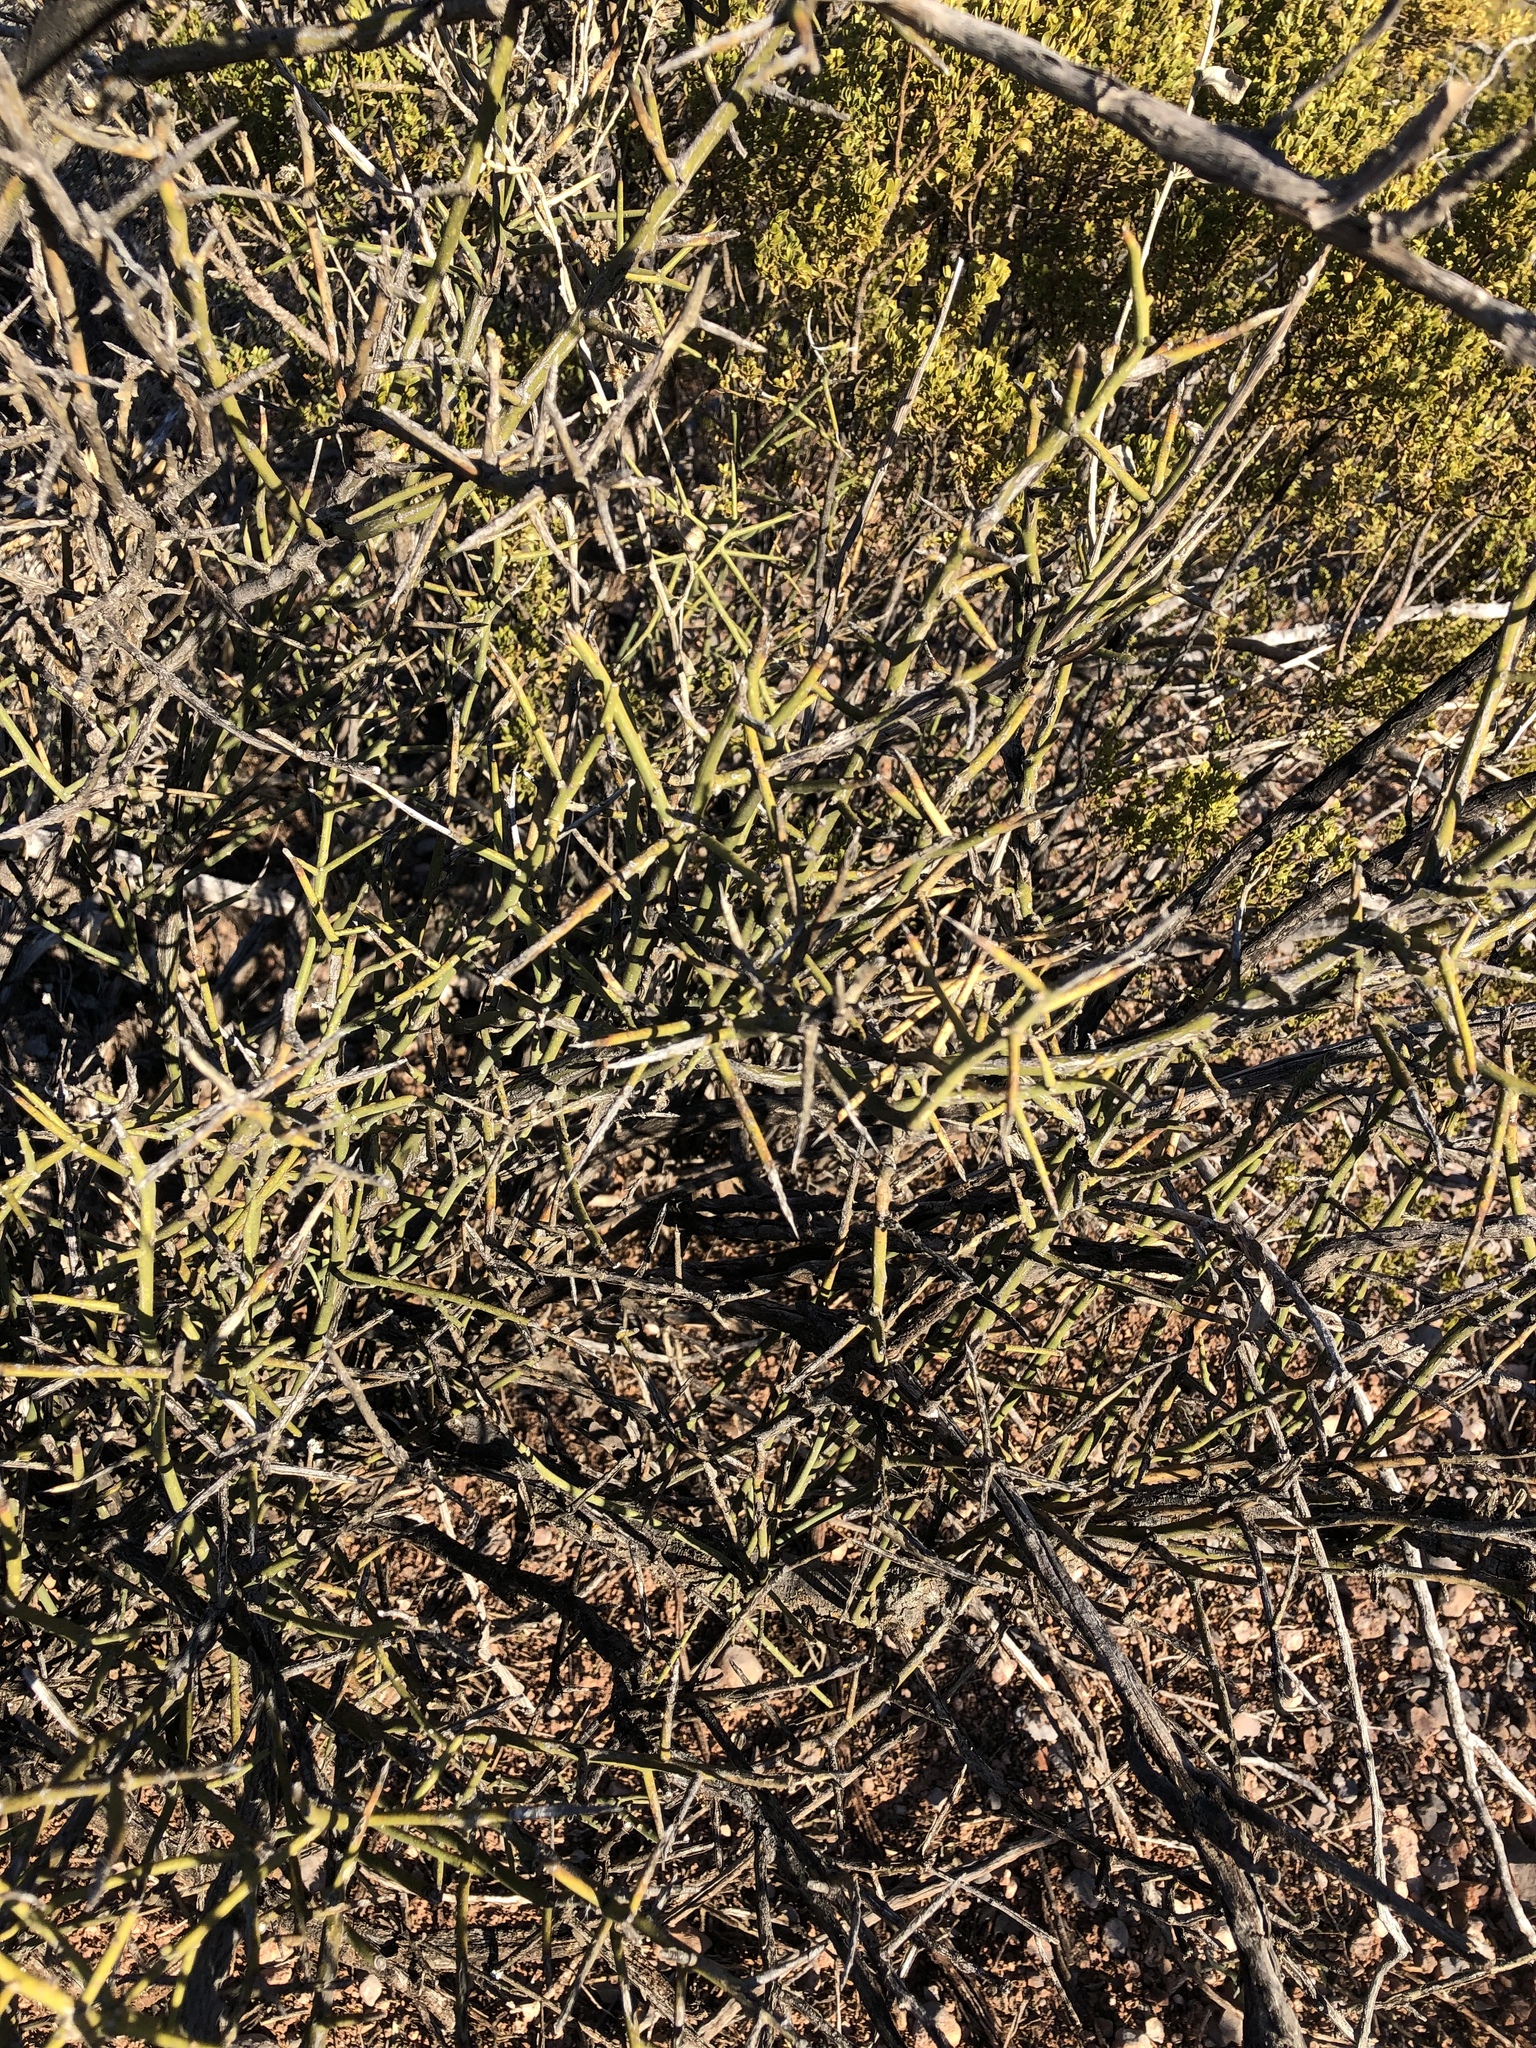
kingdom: Plantae
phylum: Tracheophyta
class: Magnoliopsida
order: Brassicales
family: Koeberliniaceae
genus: Koeberlinia
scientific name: Koeberlinia spinosa
